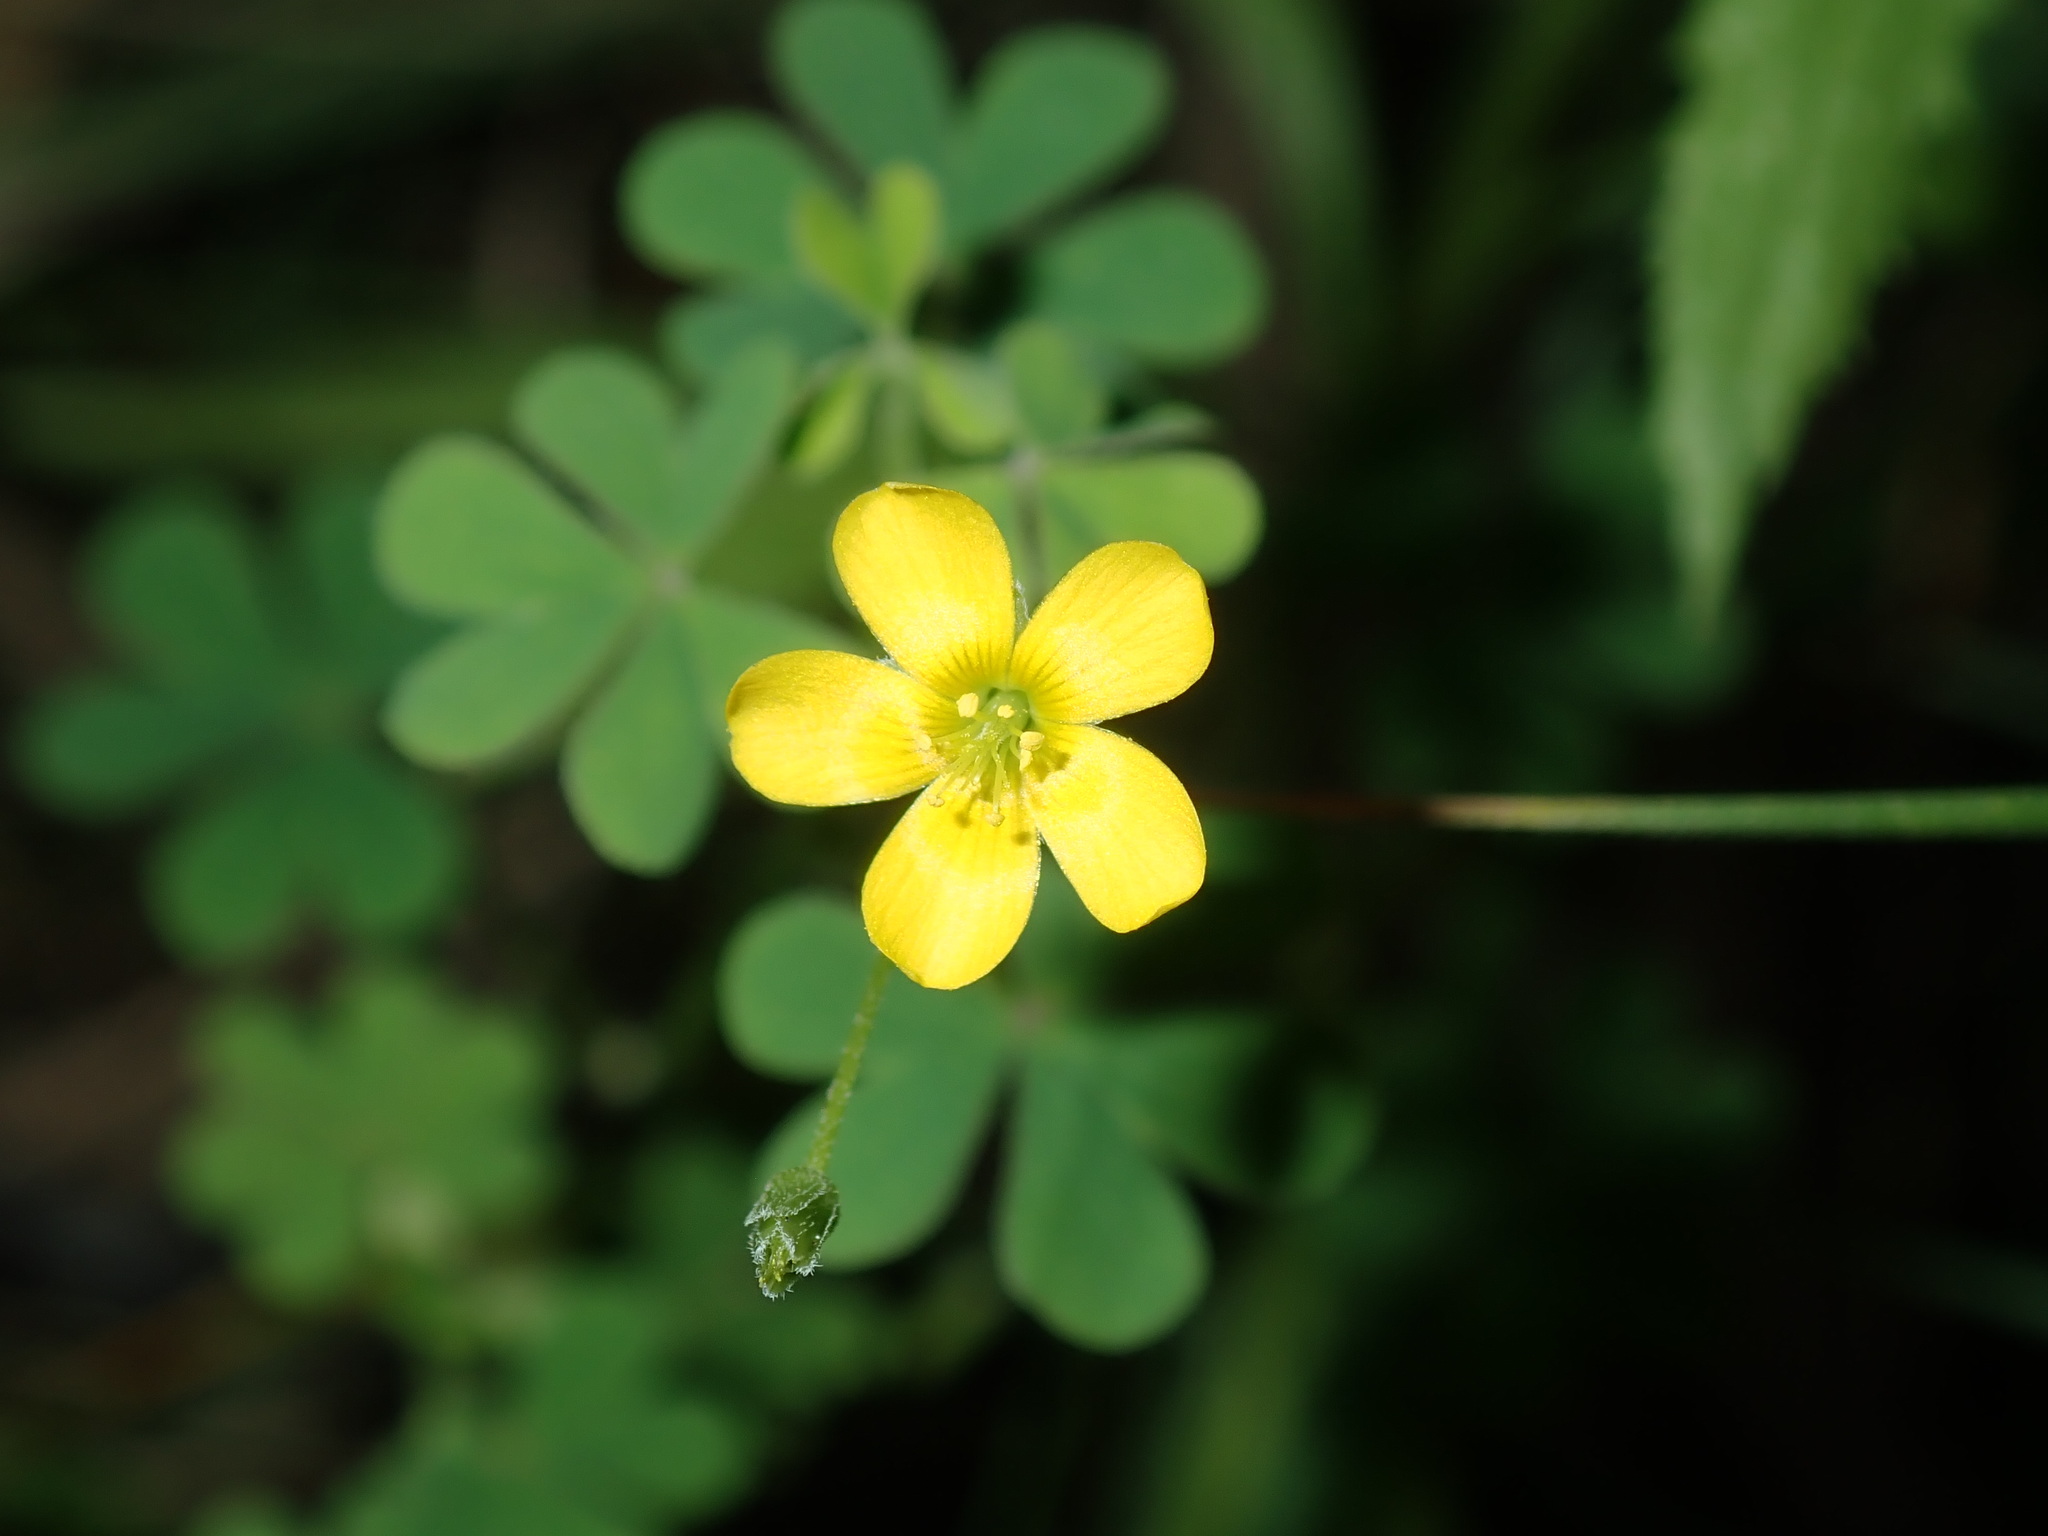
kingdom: Plantae
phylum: Tracheophyta
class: Magnoliopsida
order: Oxalidales
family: Oxalidaceae
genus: Oxalis
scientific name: Oxalis corniculata
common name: Procumbent yellow-sorrel
